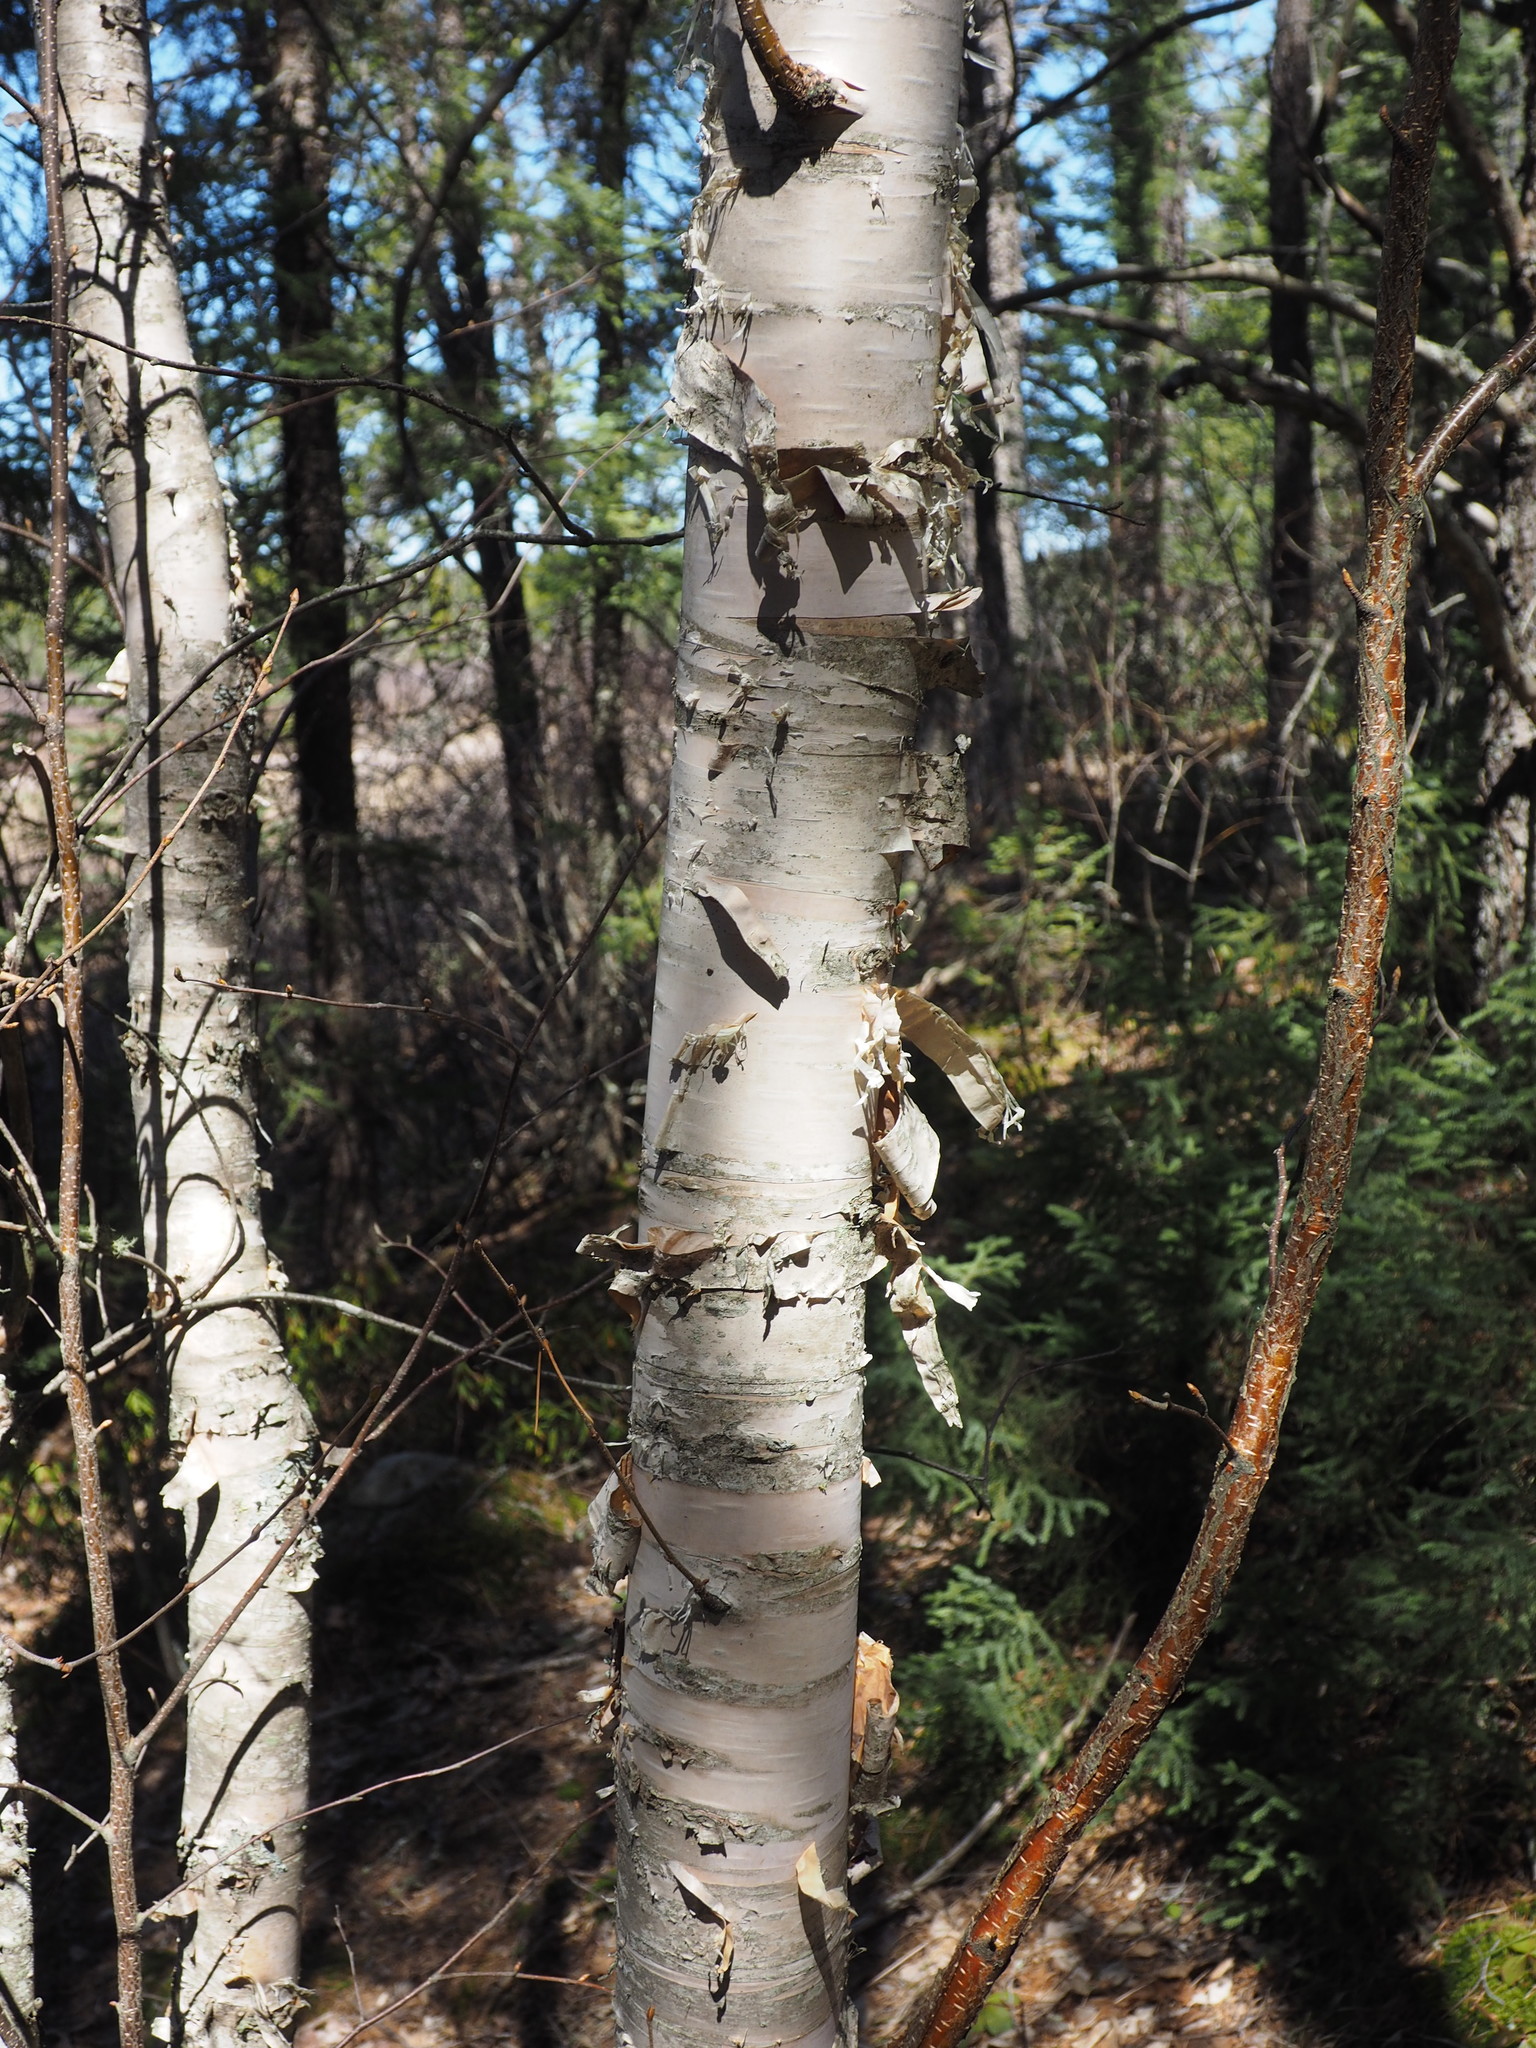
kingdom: Plantae
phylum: Tracheophyta
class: Magnoliopsida
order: Fagales
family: Betulaceae
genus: Betula
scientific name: Betula papyrifera
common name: Paper birch
